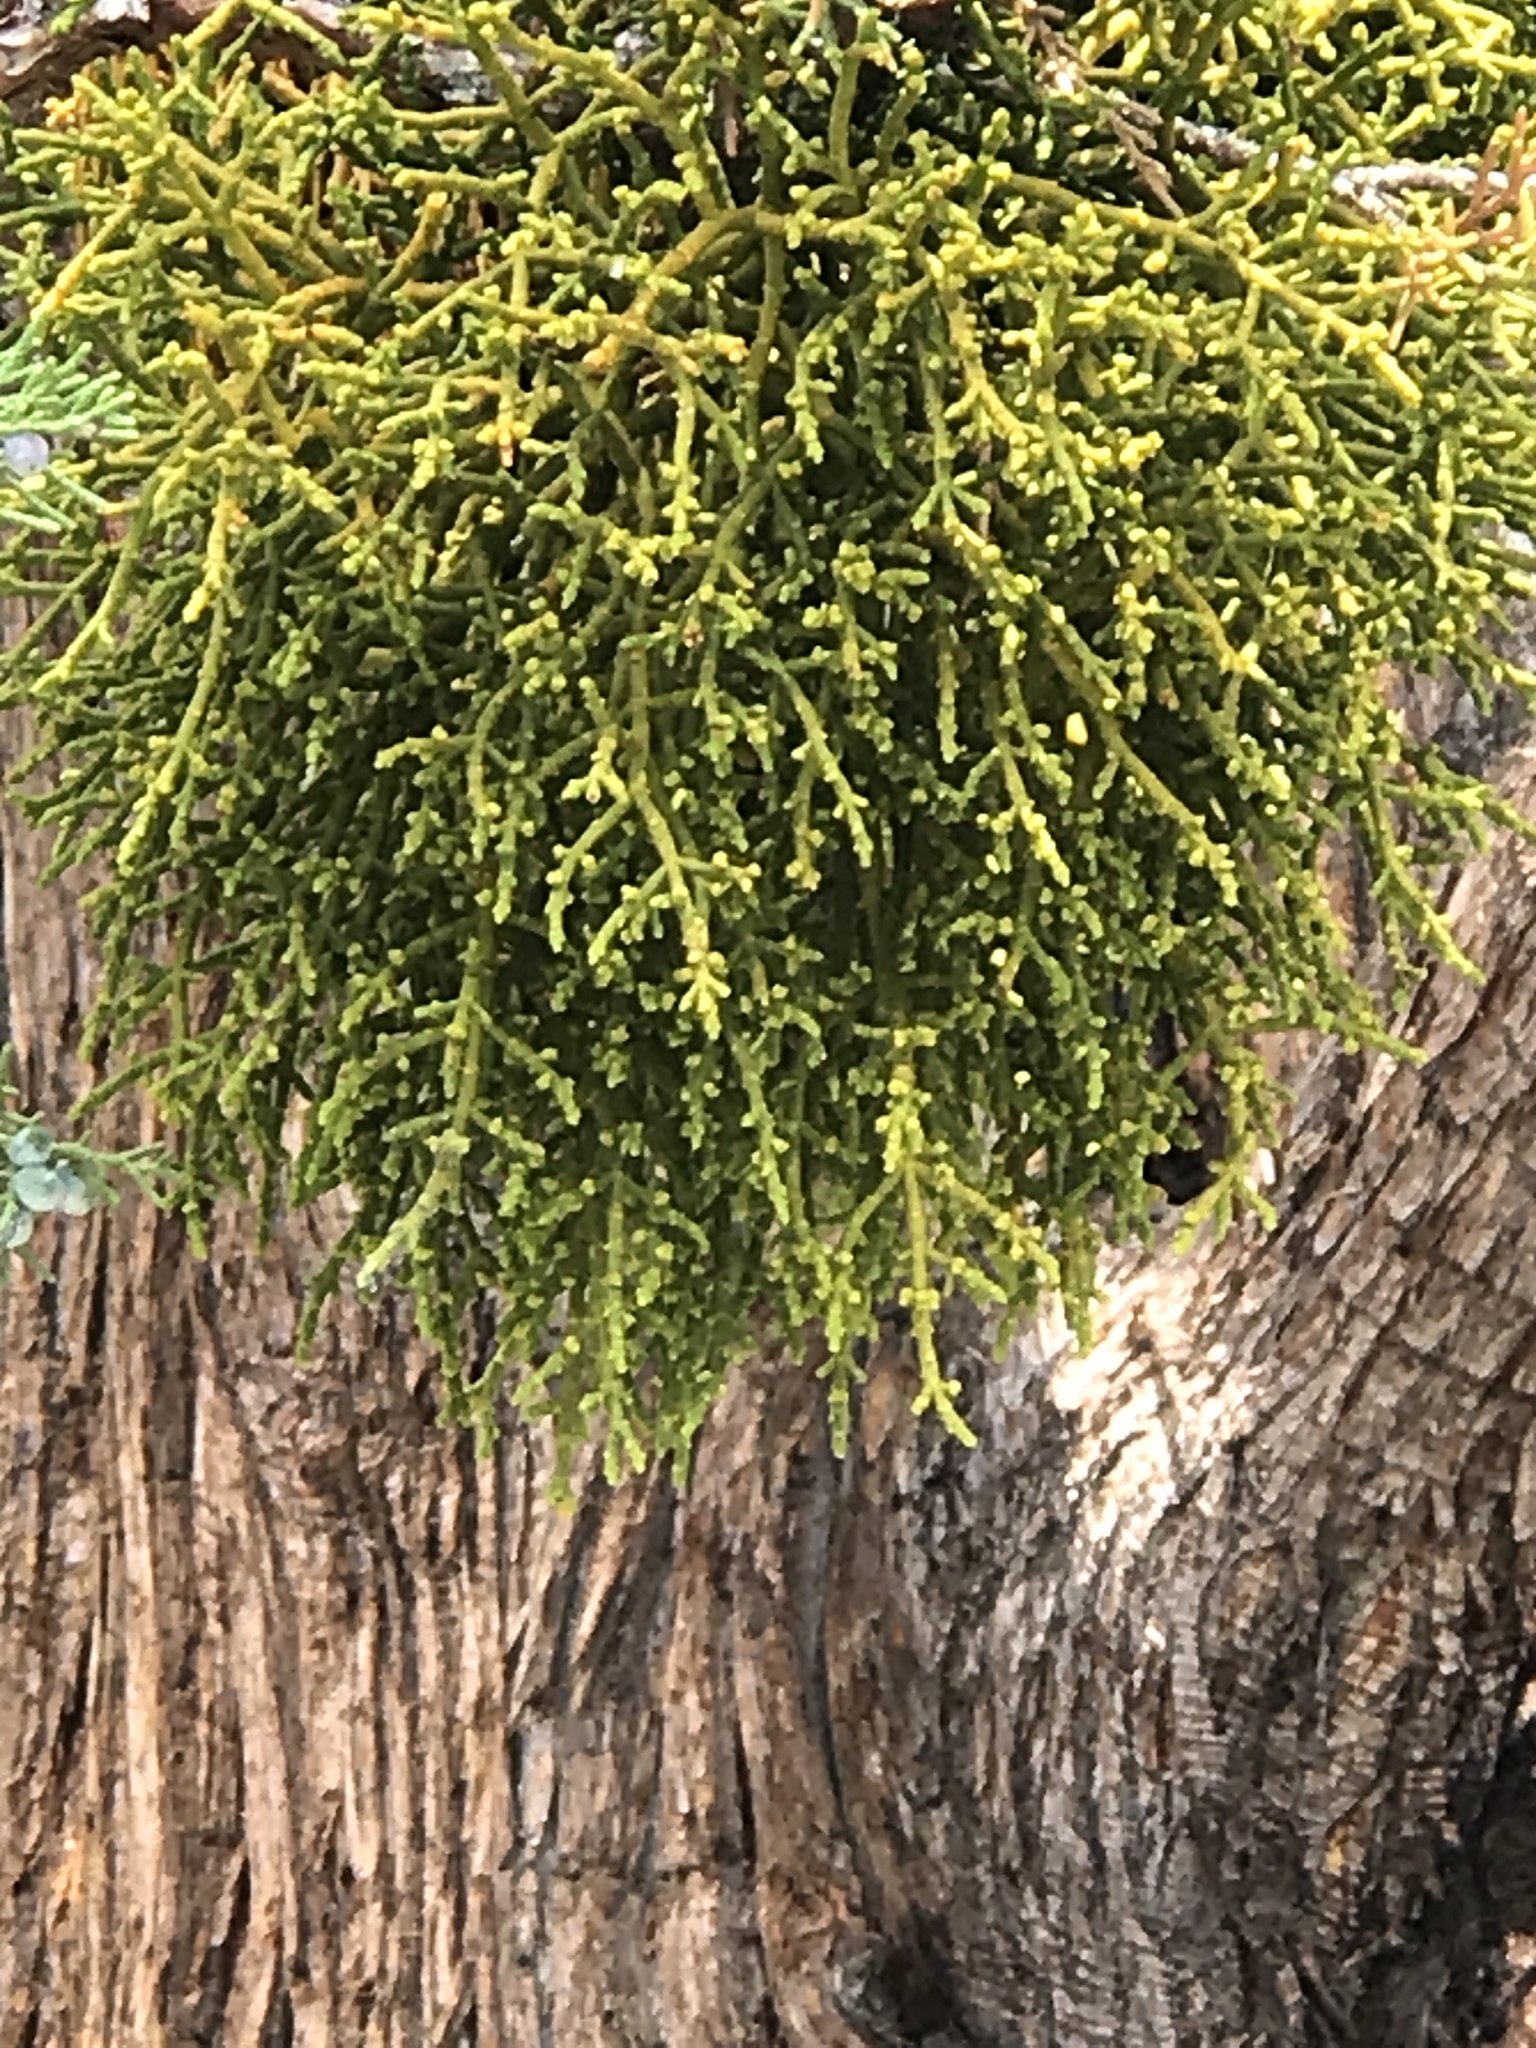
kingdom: Plantae
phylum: Tracheophyta
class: Magnoliopsida
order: Santalales
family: Viscaceae
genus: Phoradendron
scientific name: Phoradendron juniperinum
